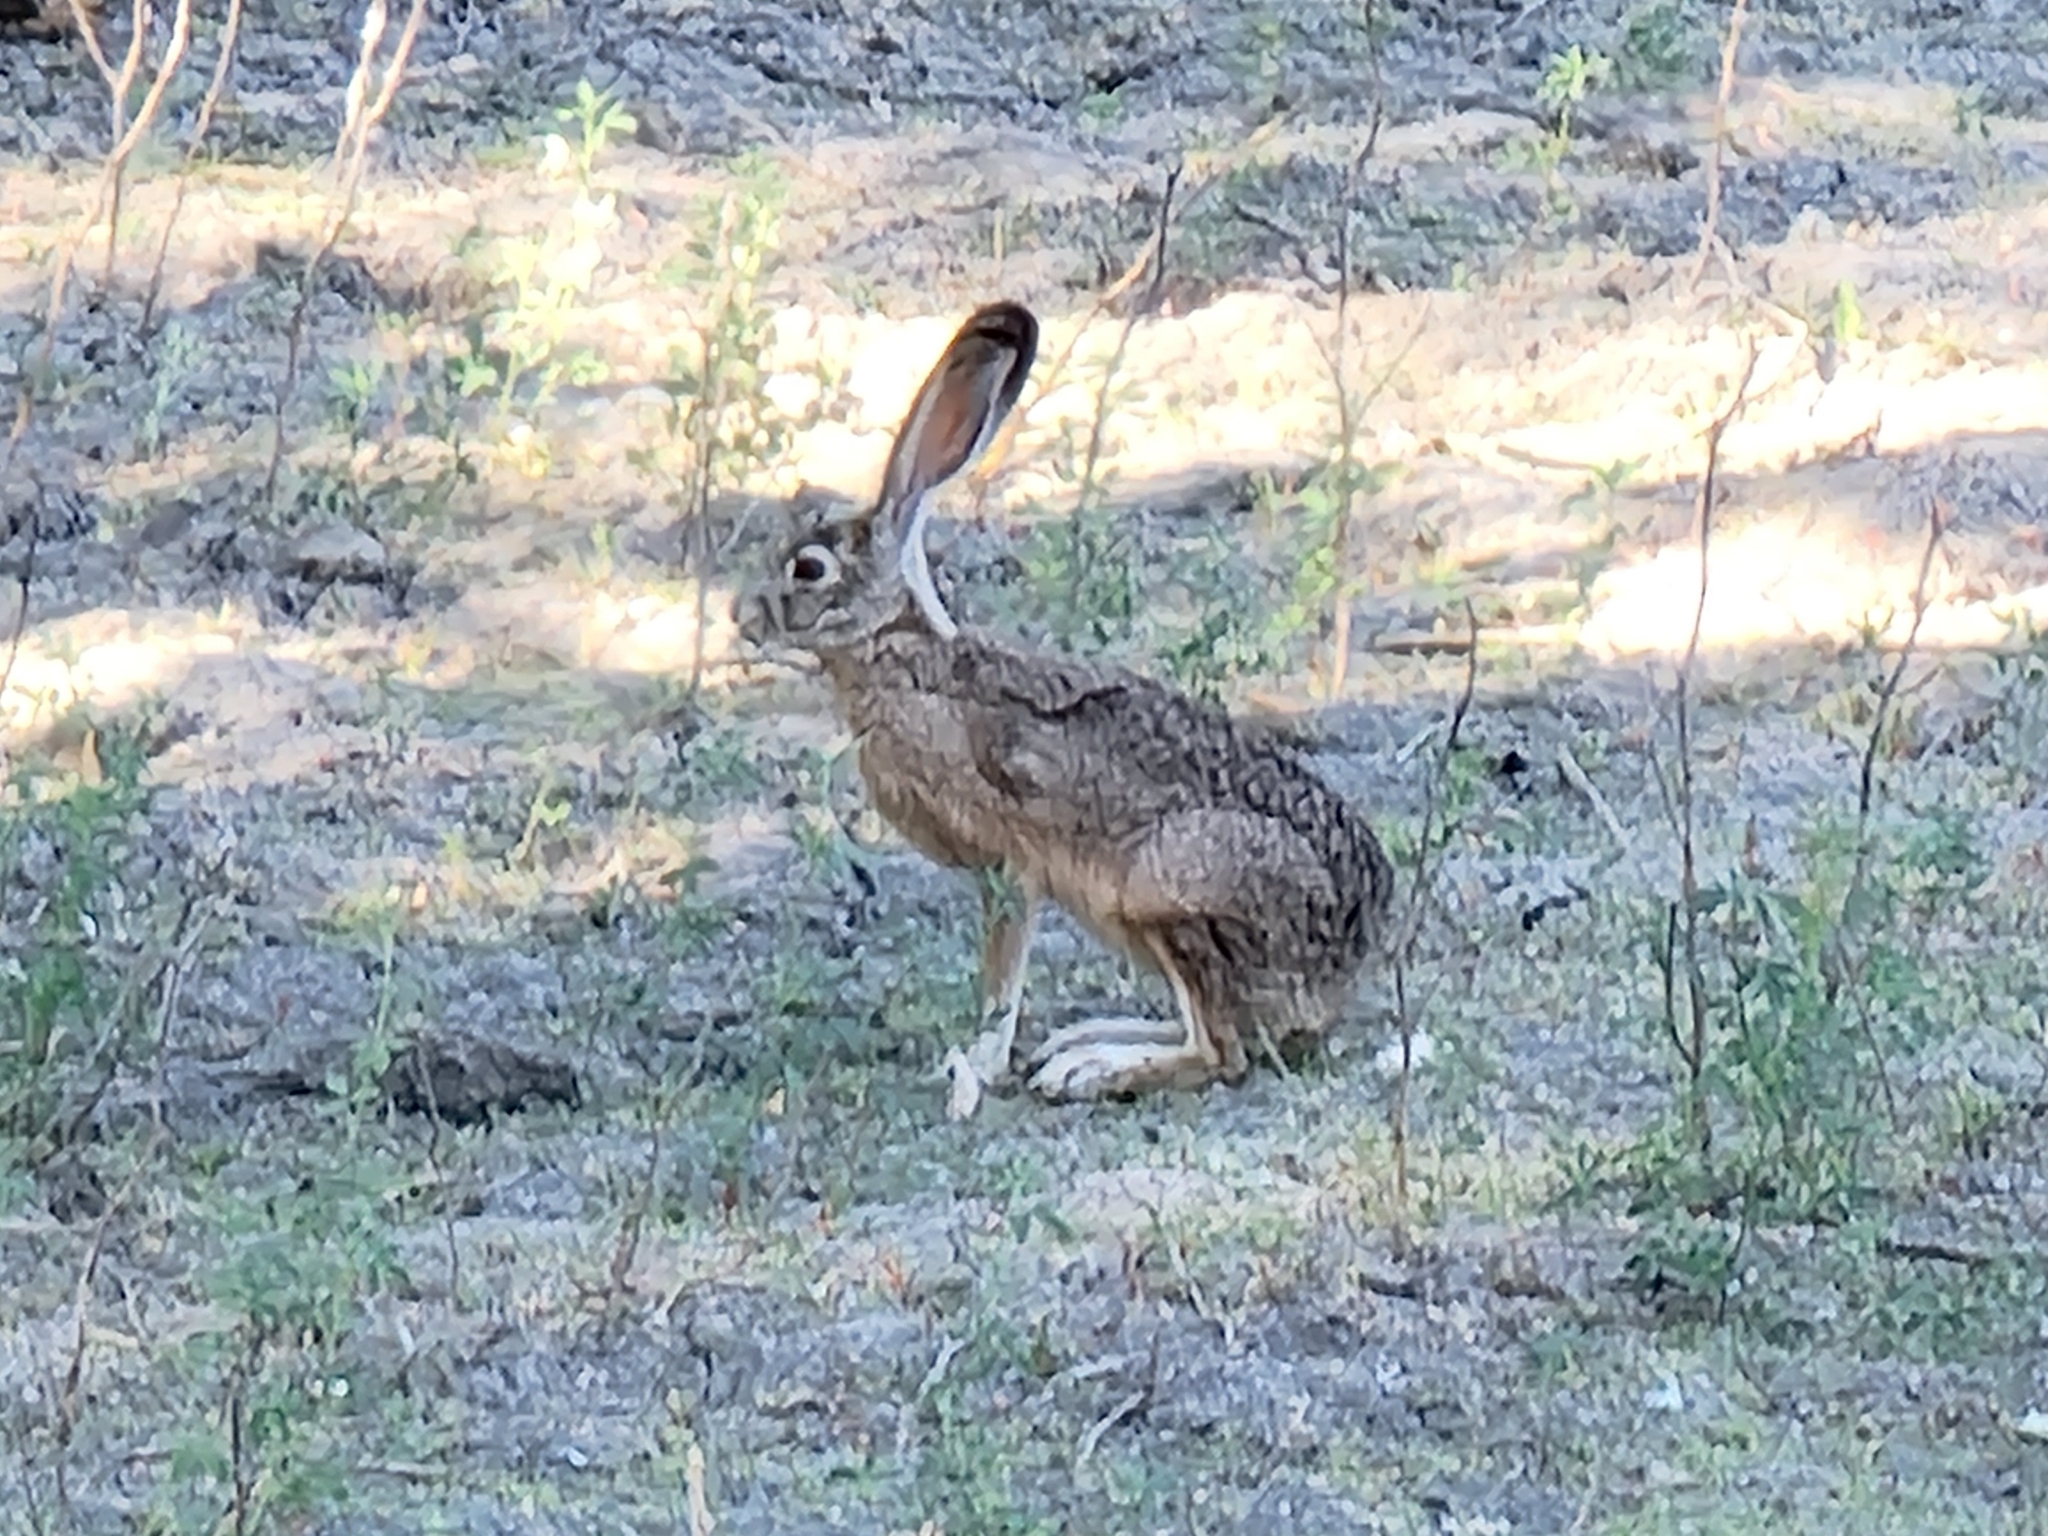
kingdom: Animalia
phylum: Chordata
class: Mammalia
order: Lagomorpha
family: Leporidae
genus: Lepus
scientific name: Lepus californicus
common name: Black-tailed jackrabbit
